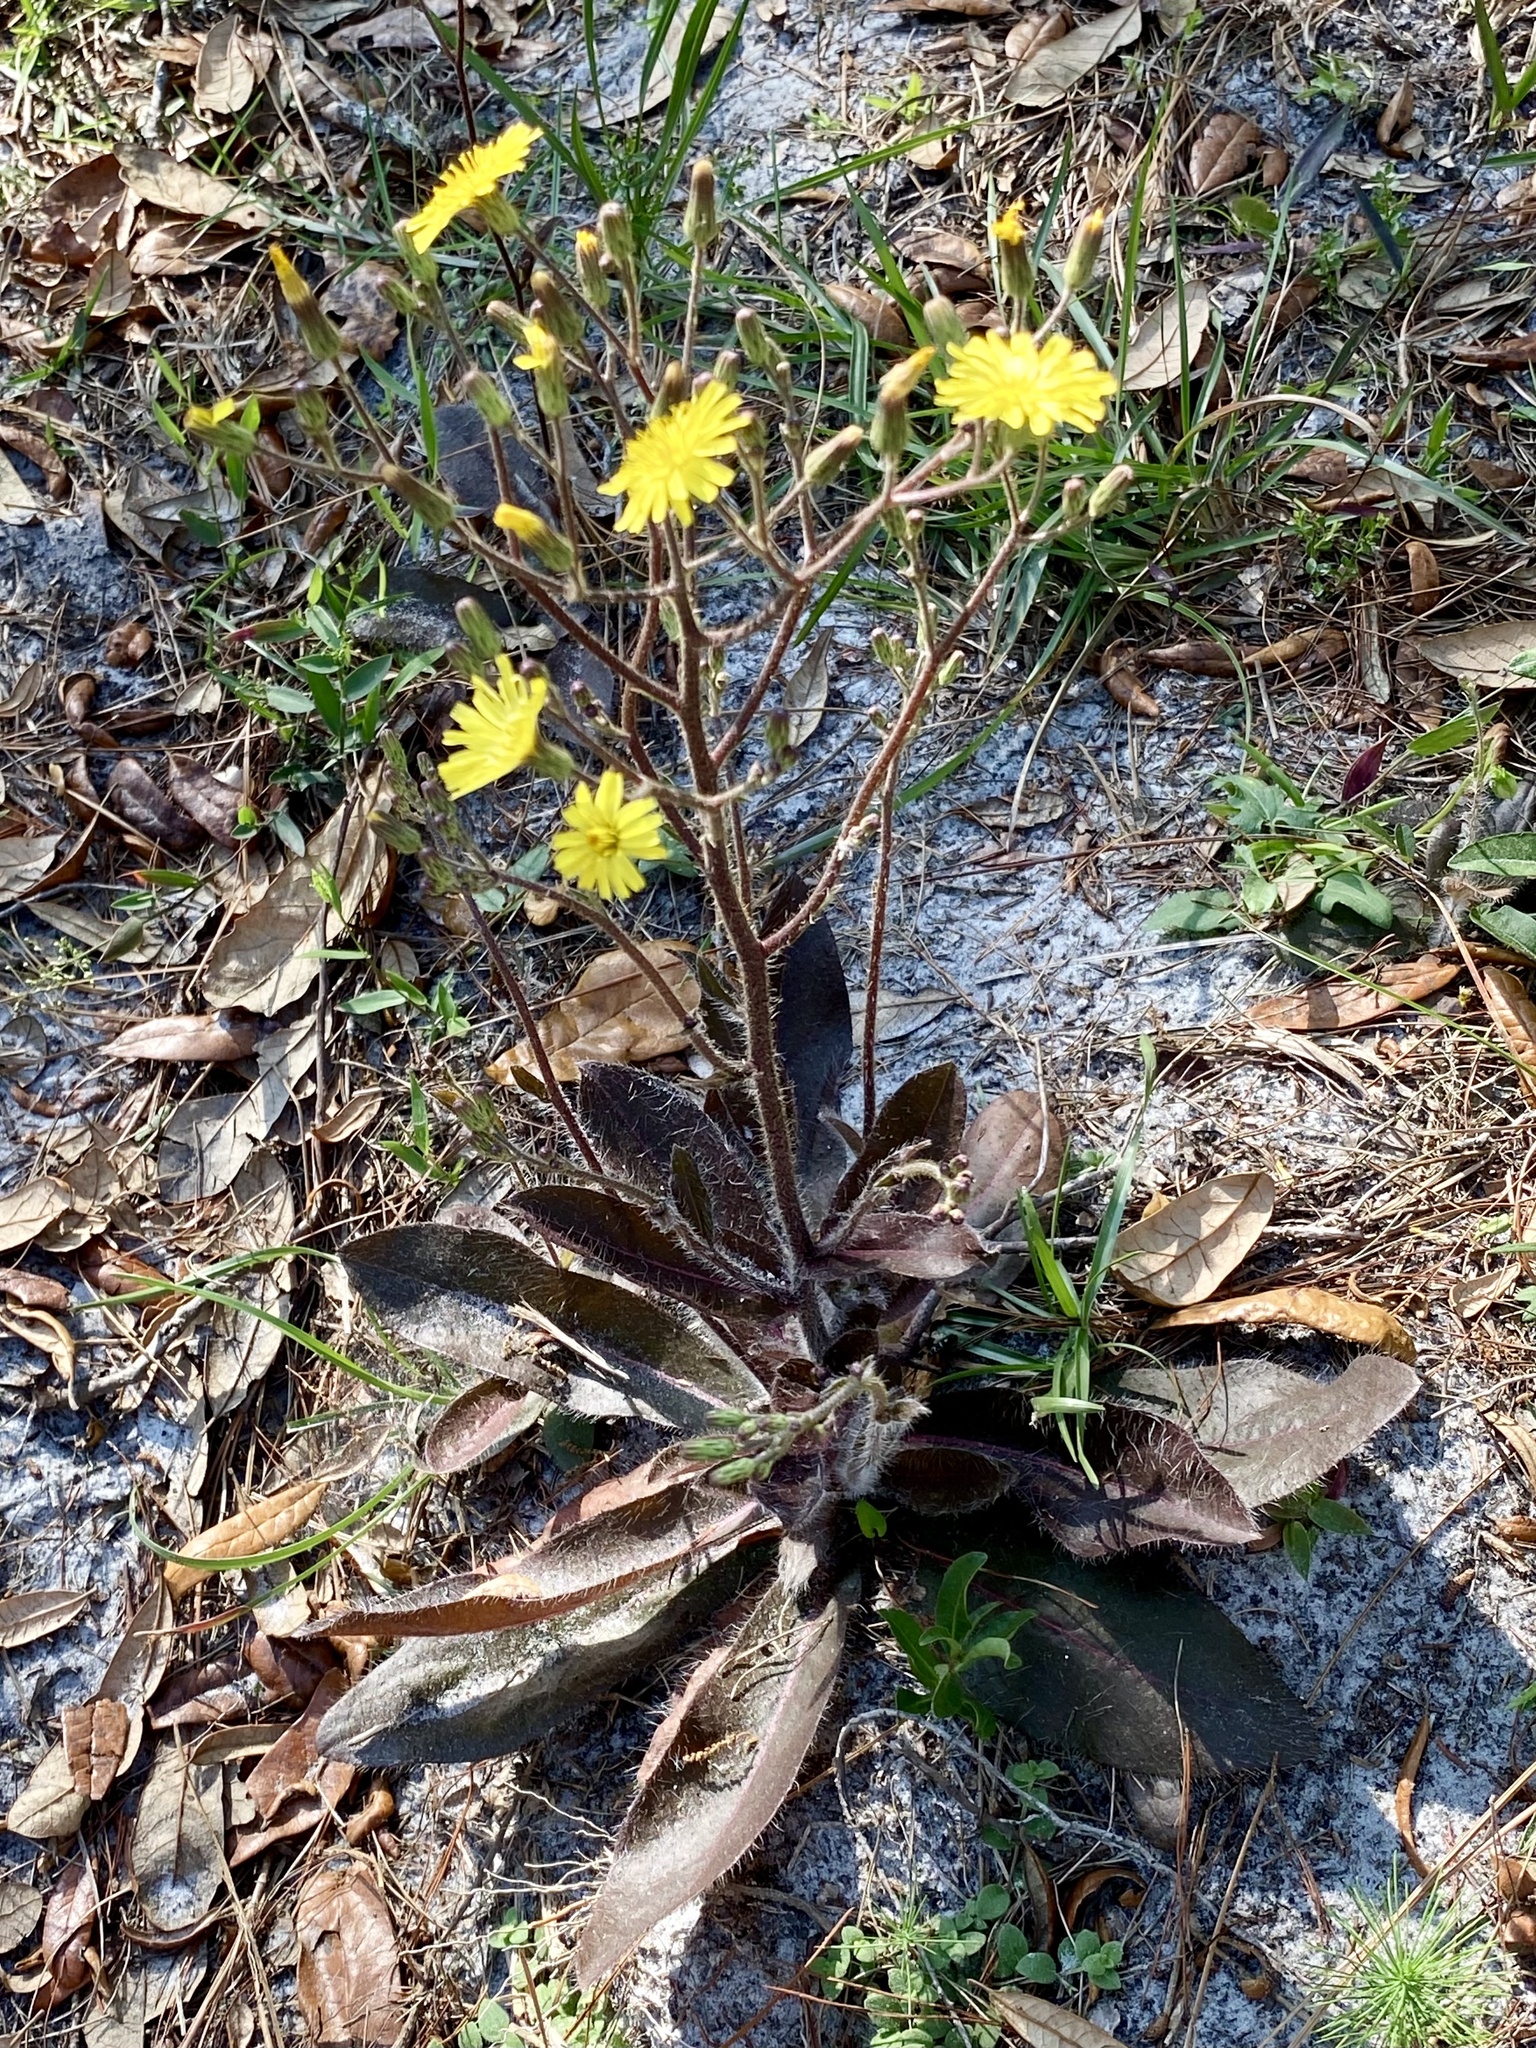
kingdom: Plantae
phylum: Tracheophyta
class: Magnoliopsida
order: Asterales
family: Asteraceae
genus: Hieracium
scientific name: Hieracium megacephalum
